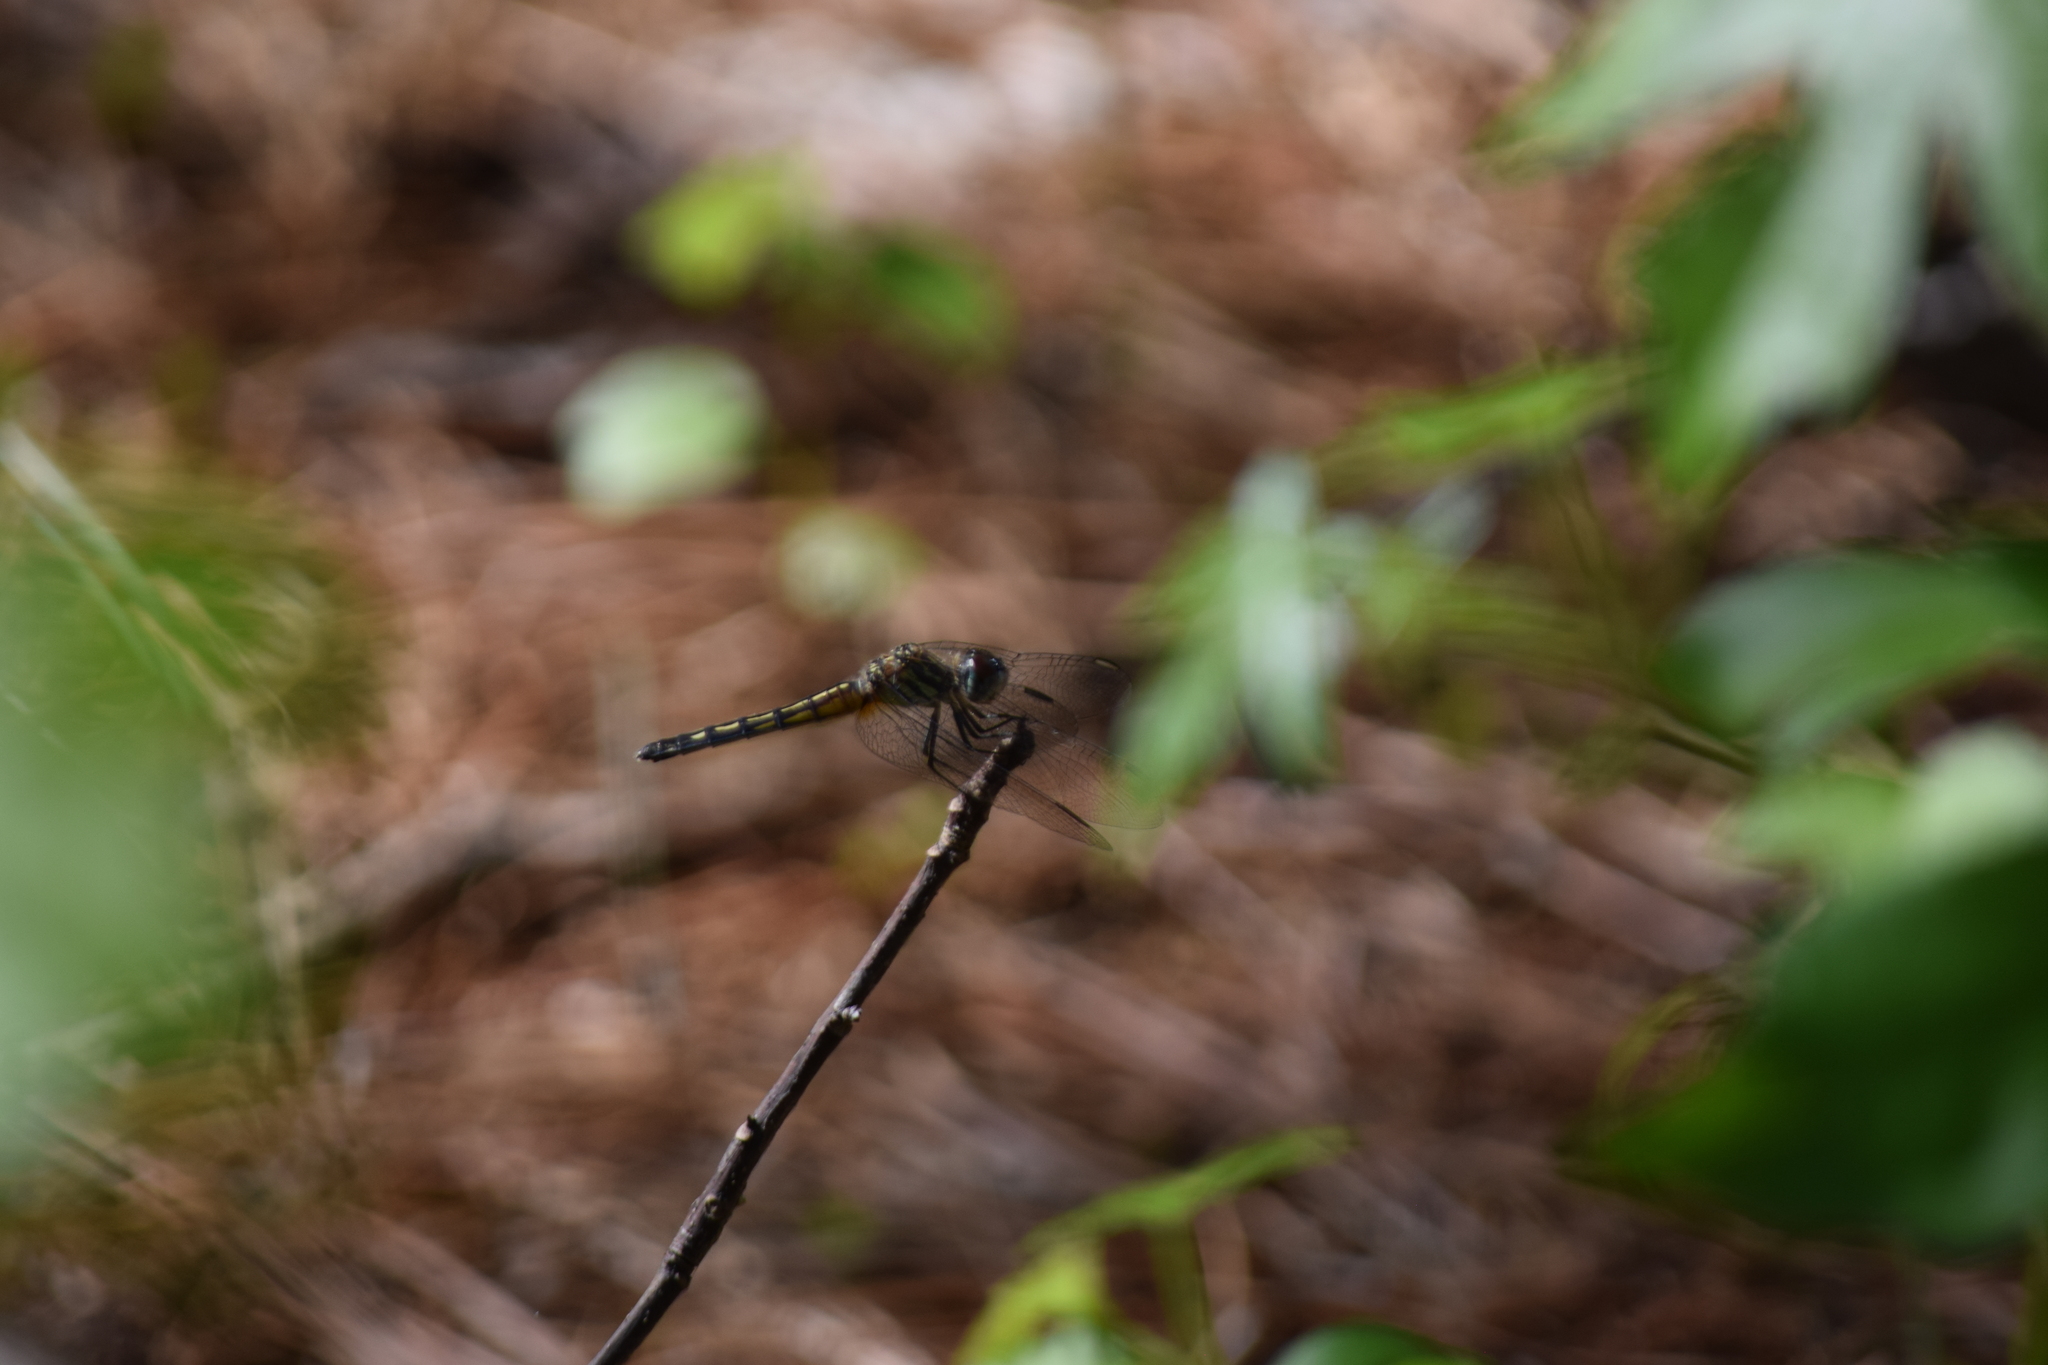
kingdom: Animalia
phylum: Arthropoda
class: Insecta
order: Odonata
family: Libellulidae
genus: Pachydiplax
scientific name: Pachydiplax longipennis
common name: Blue dasher
